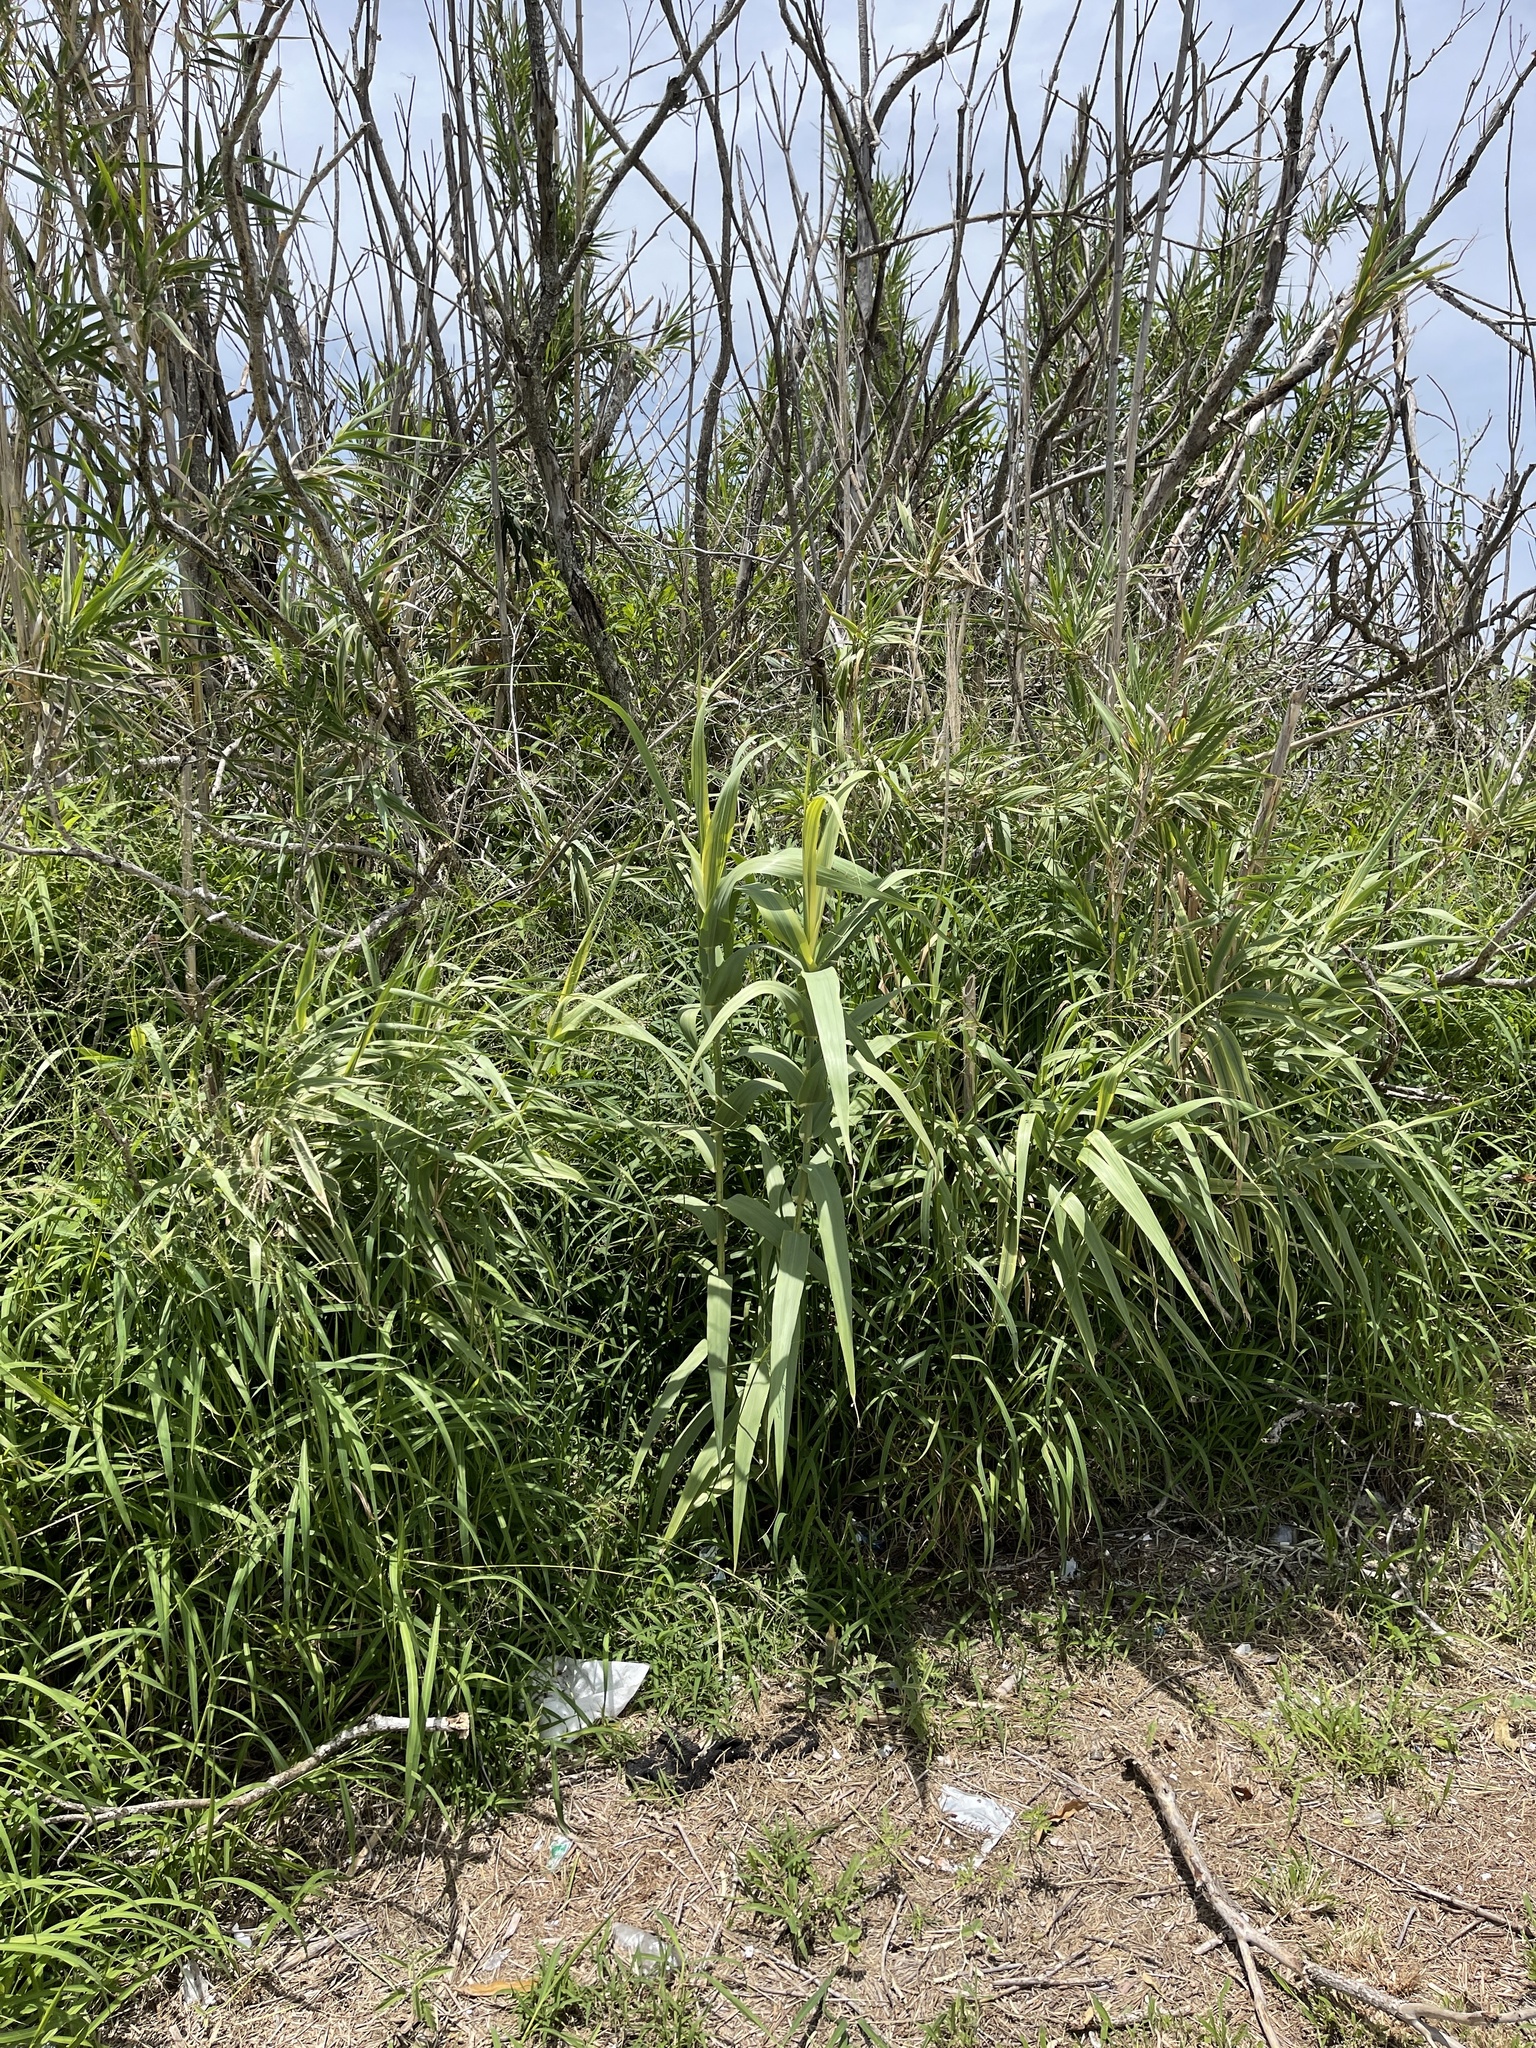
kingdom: Plantae
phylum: Tracheophyta
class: Liliopsida
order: Poales
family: Poaceae
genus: Arundo
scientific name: Arundo donax
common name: Giant reed
